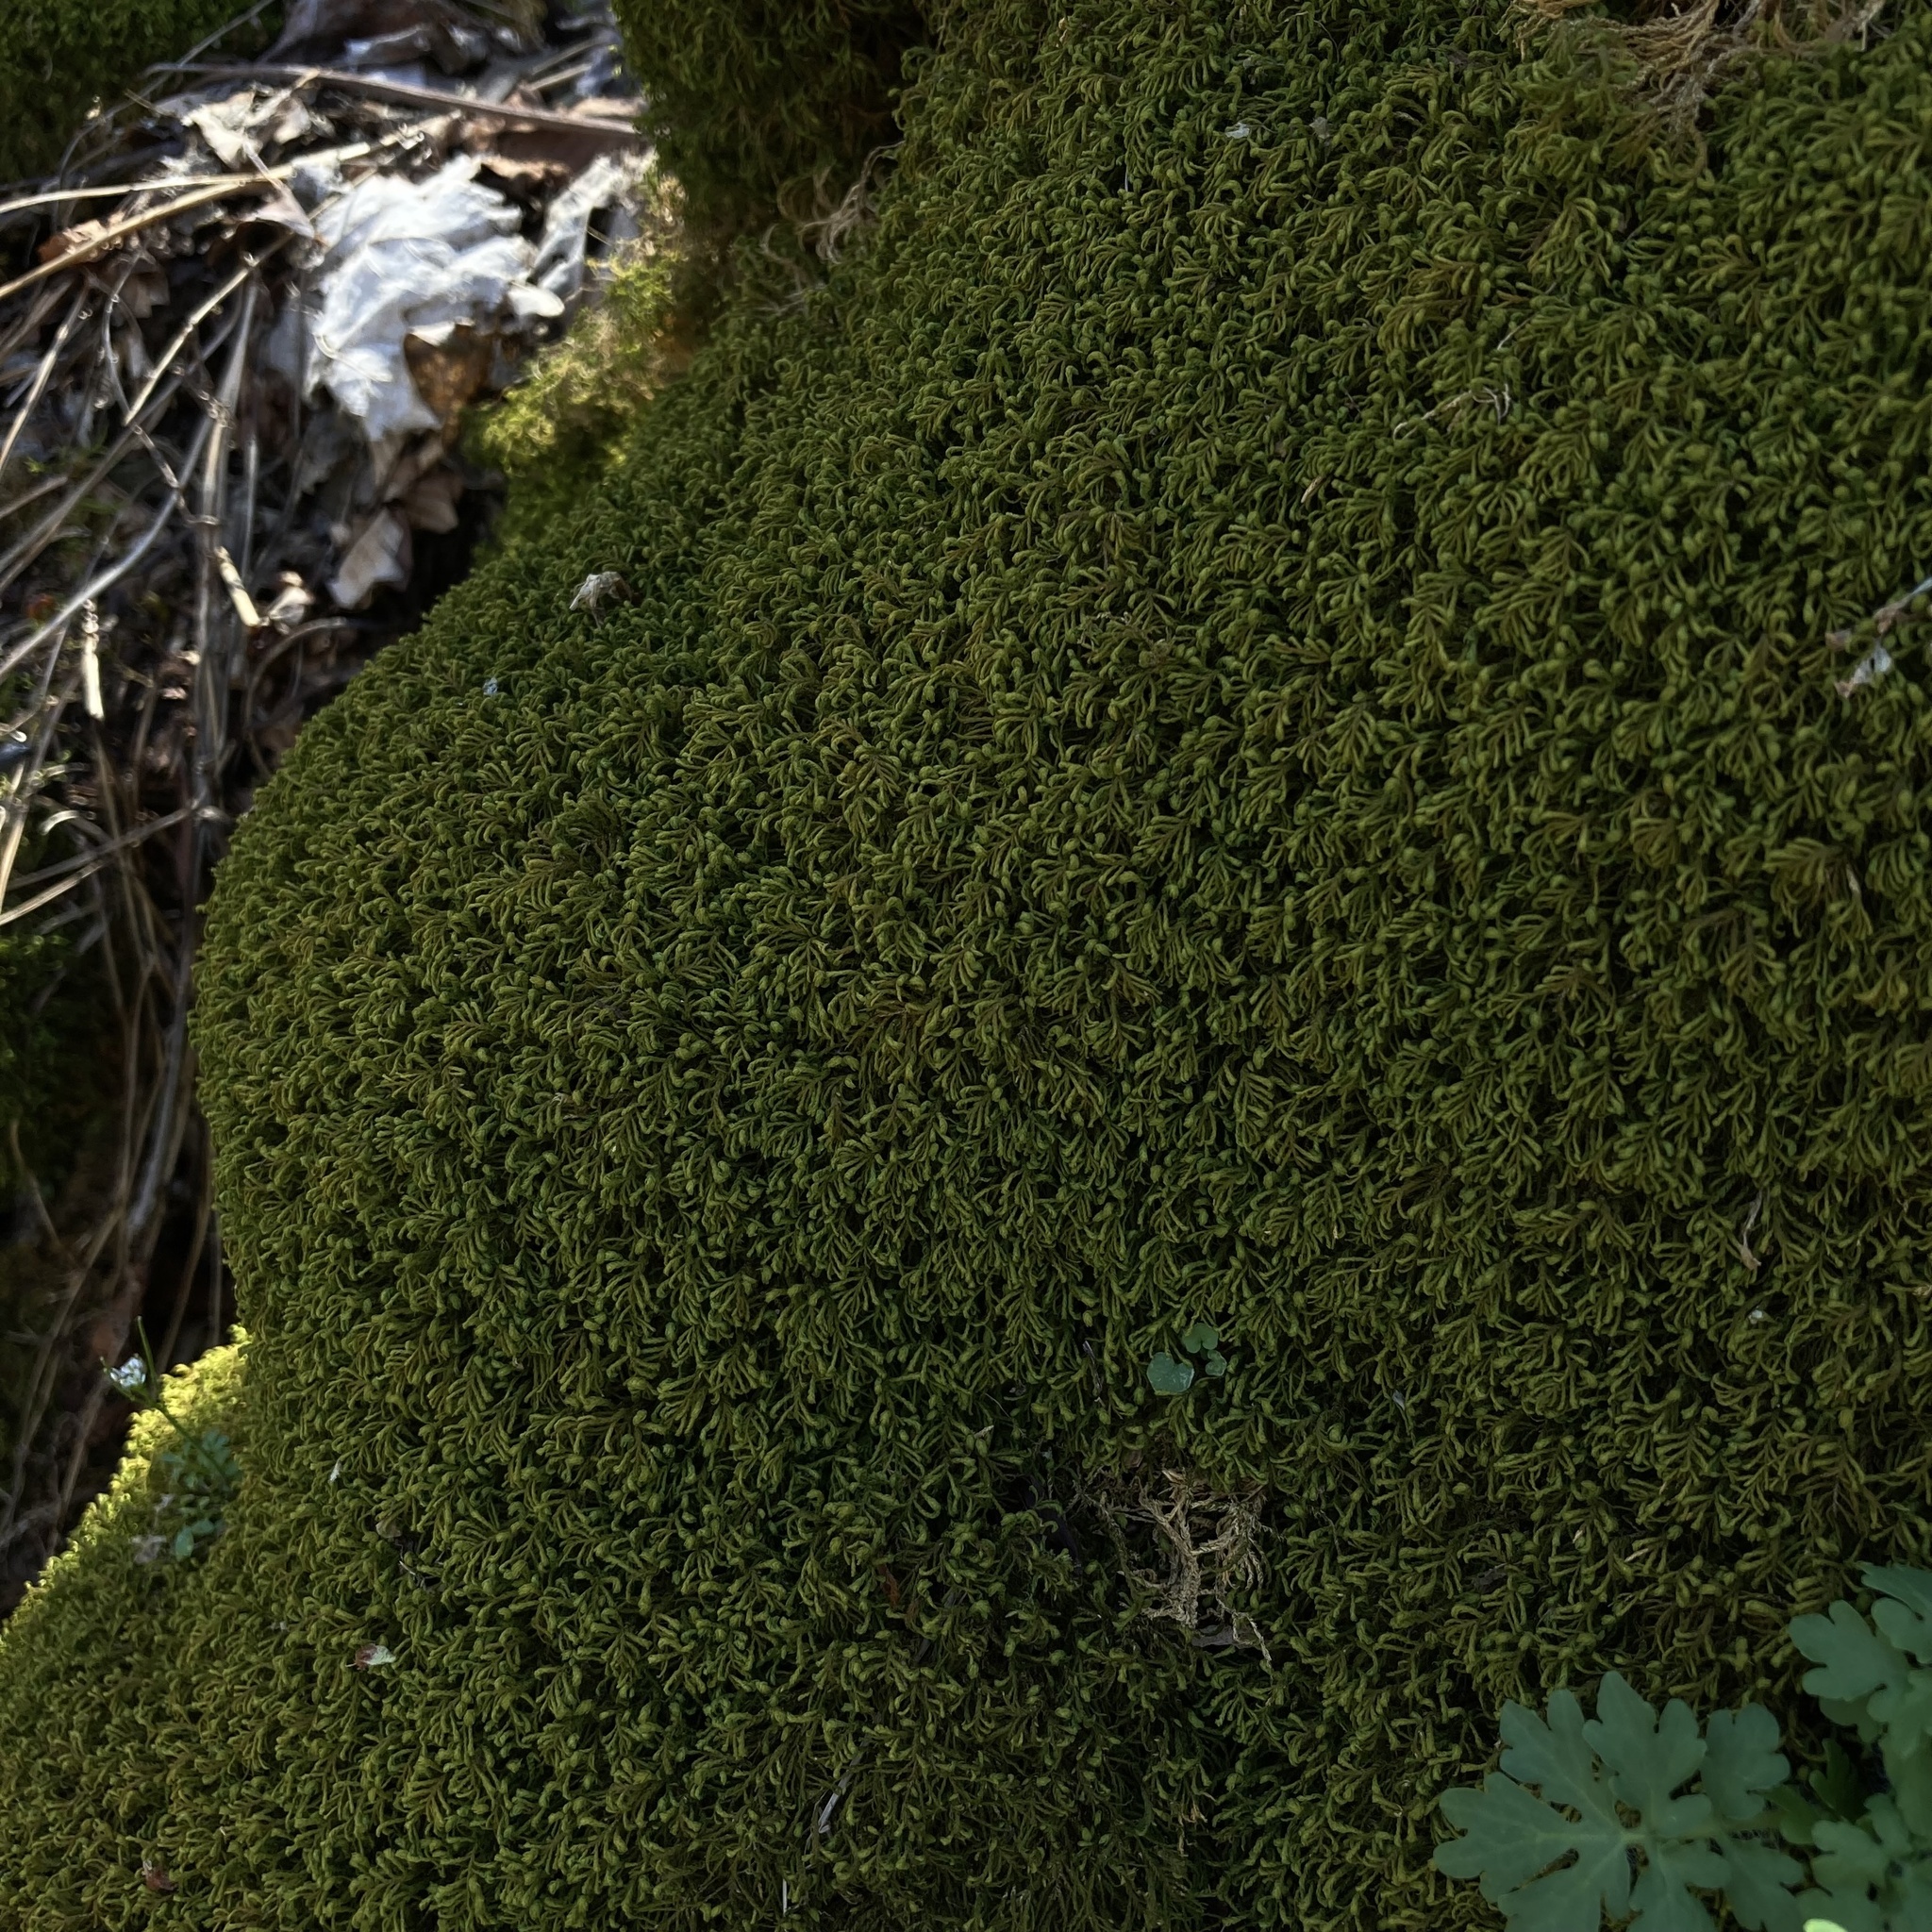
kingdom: Plantae
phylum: Bryophyta
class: Bryopsida
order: Hypnales
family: Neckeraceae
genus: Pseudanomodon
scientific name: Pseudanomodon attenuatus
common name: Tree-skirt moss
